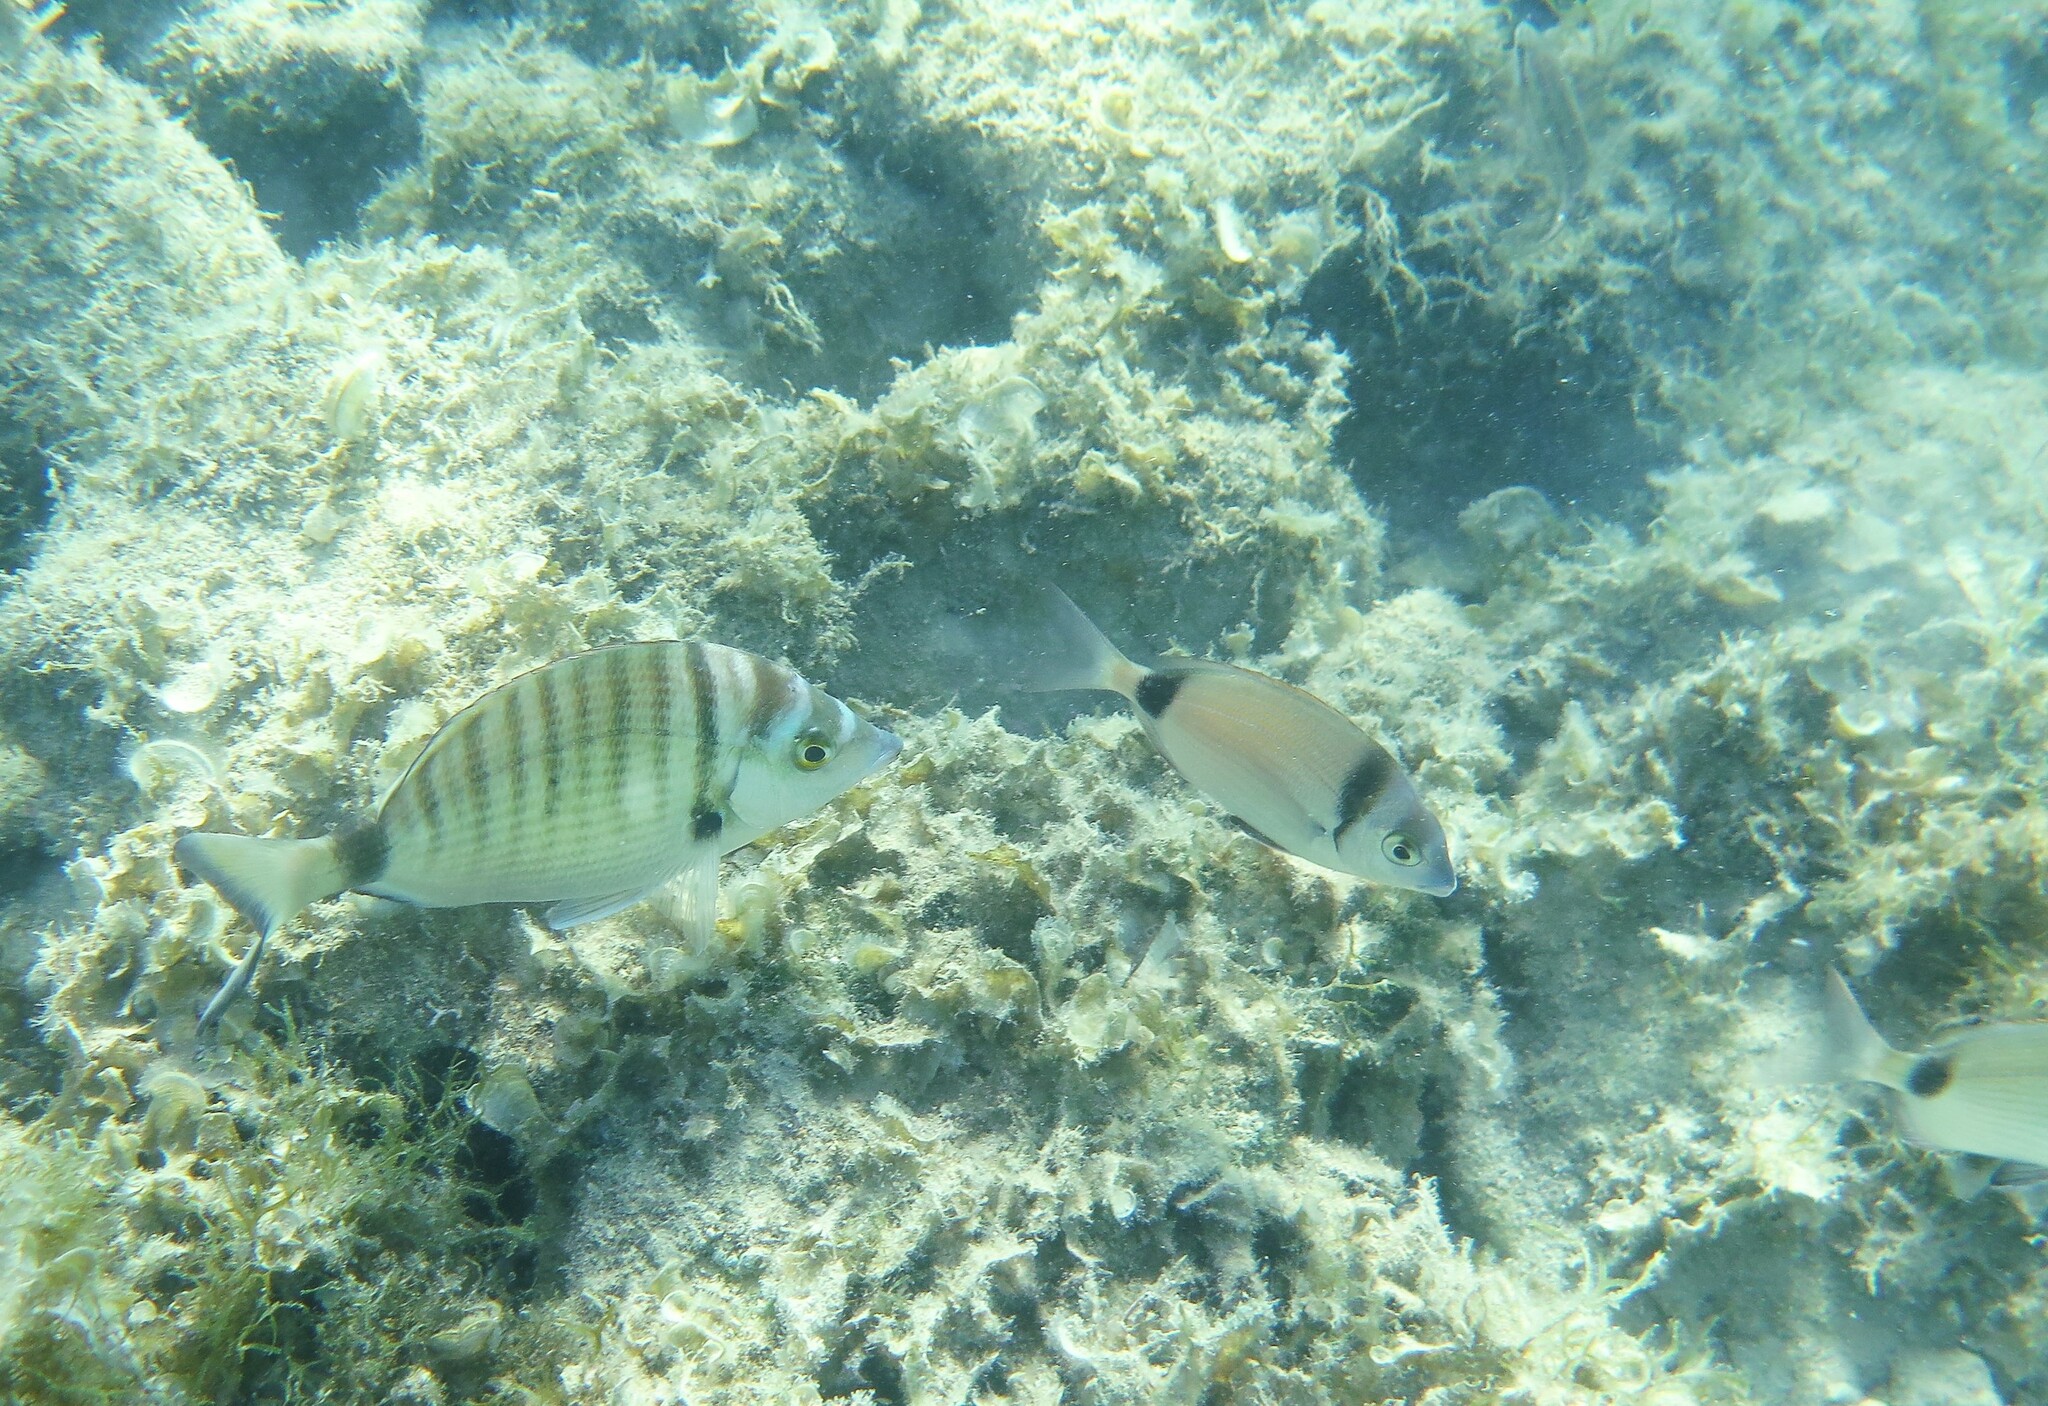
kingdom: Animalia
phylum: Chordata
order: Perciformes
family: Sparidae
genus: Diplodus
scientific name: Diplodus puntazzo
